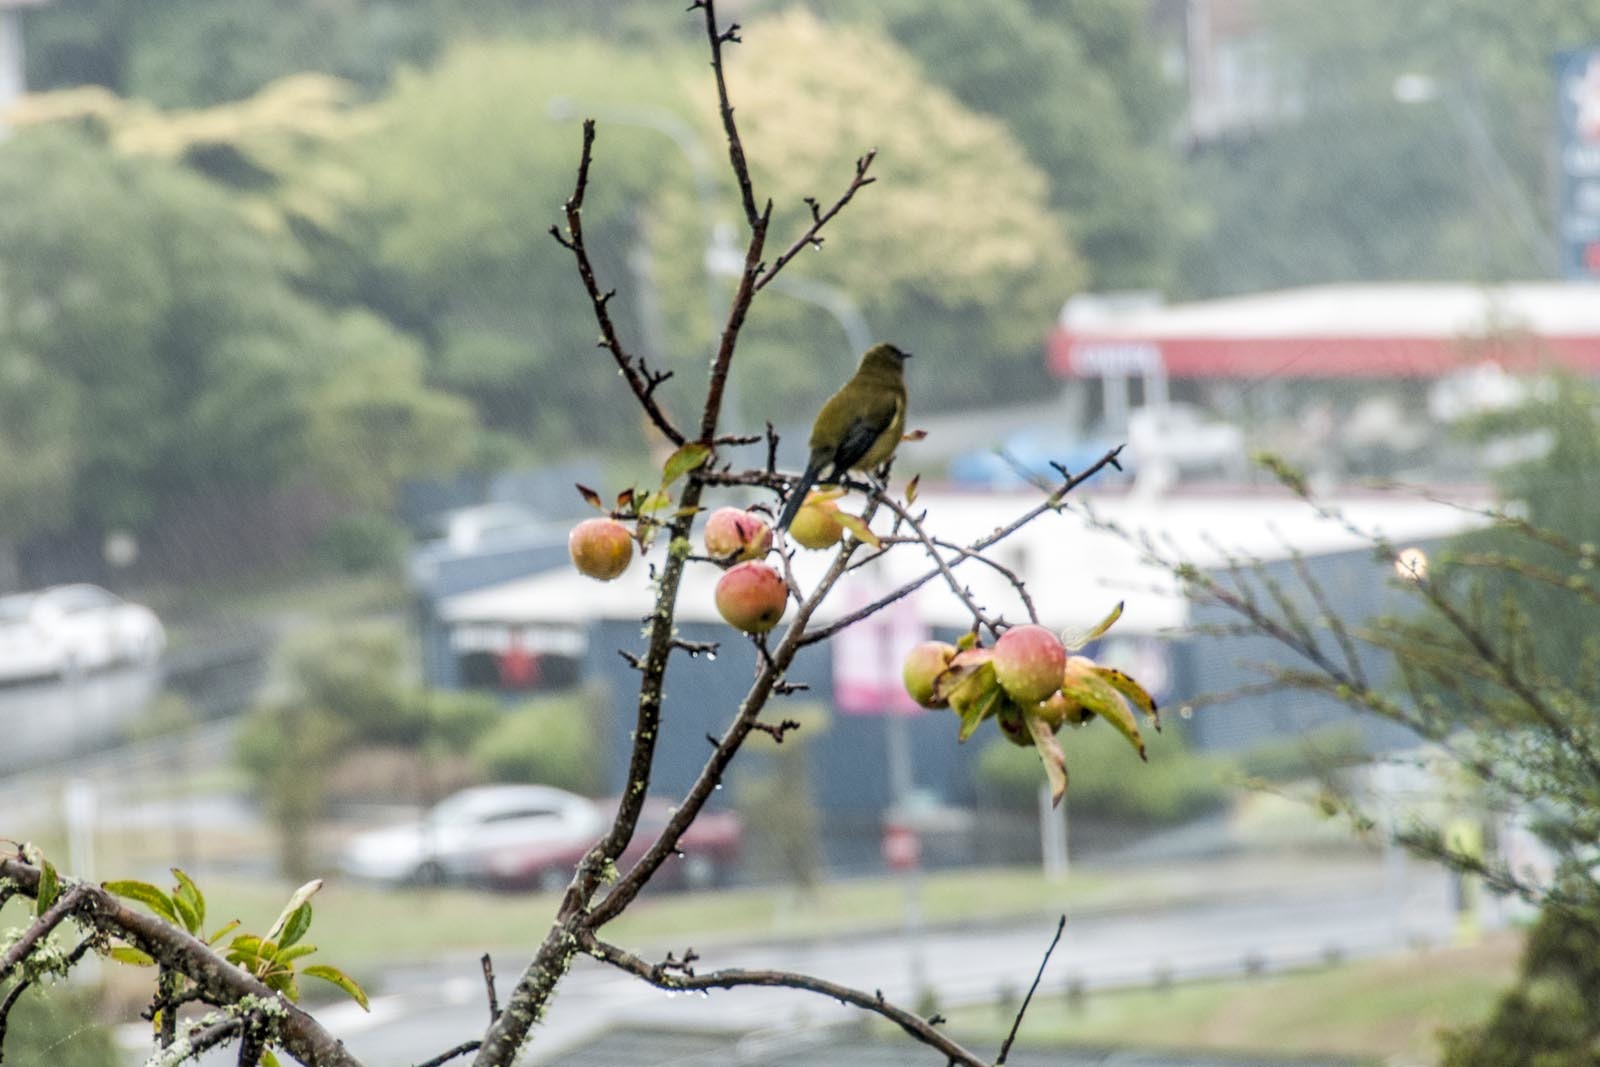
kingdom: Animalia
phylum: Chordata
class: Aves
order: Passeriformes
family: Meliphagidae
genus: Anthornis
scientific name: Anthornis melanura
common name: New zealand bellbird
